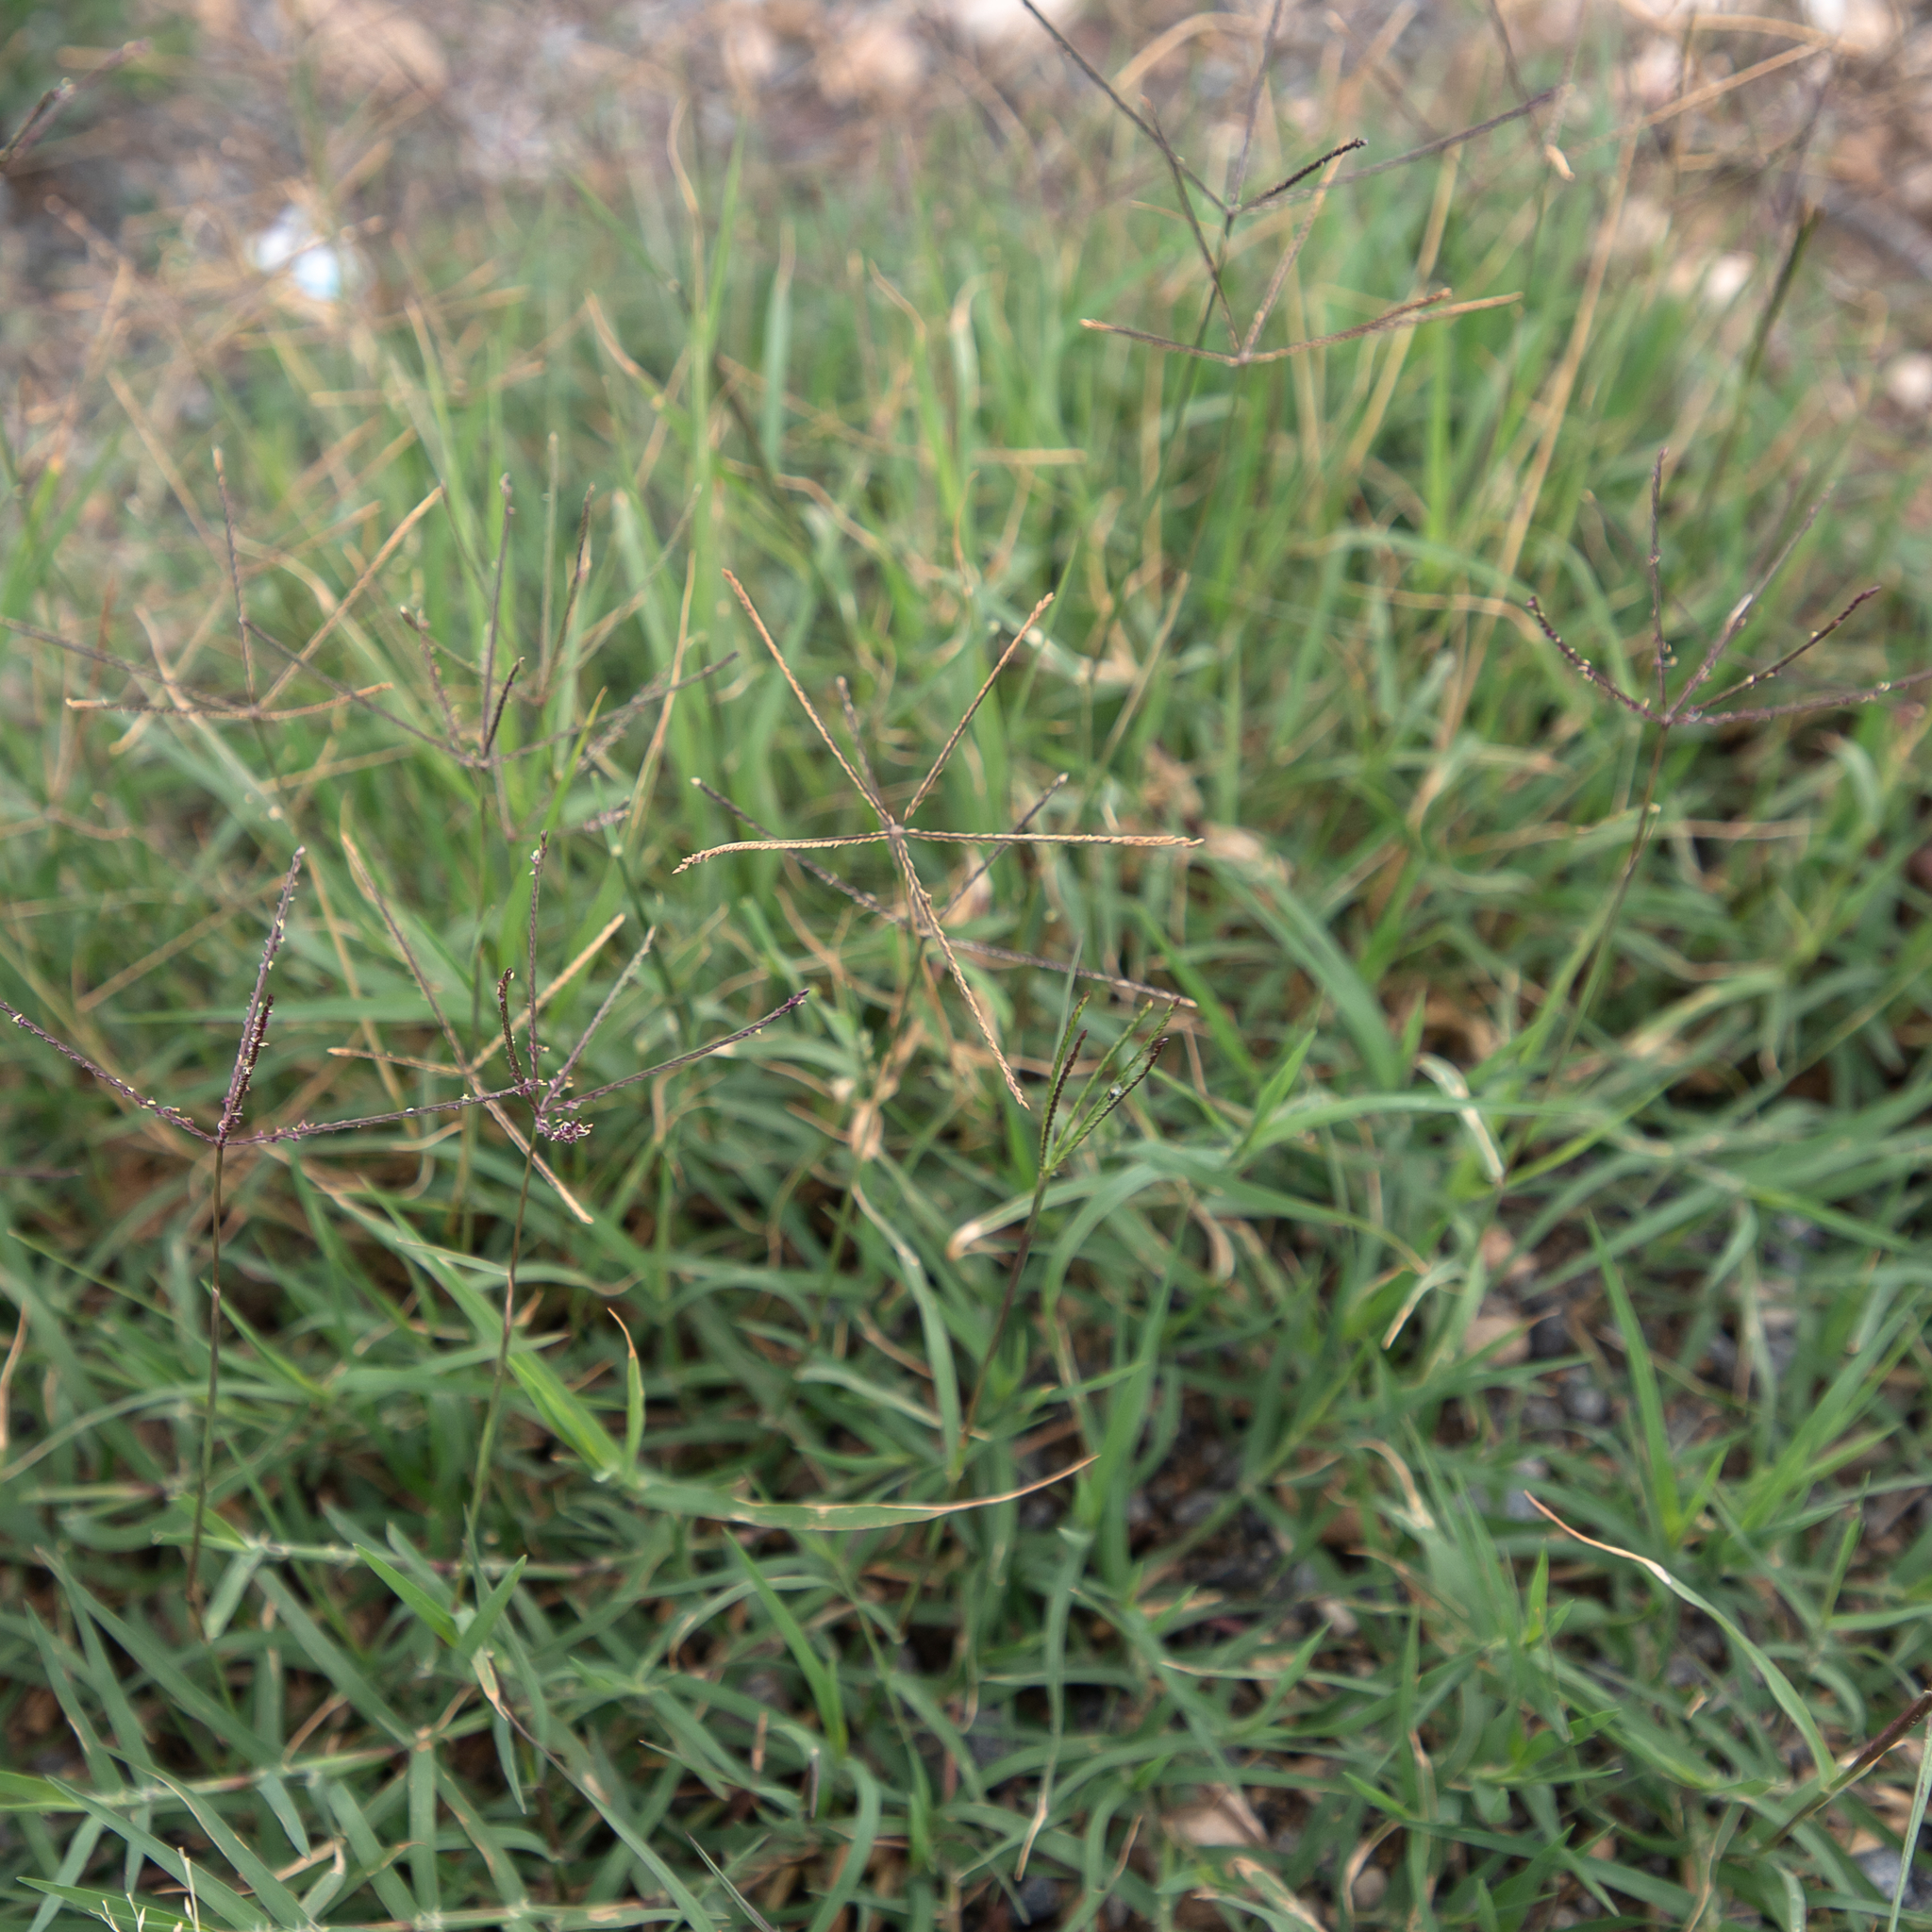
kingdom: Plantae
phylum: Tracheophyta
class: Liliopsida
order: Poales
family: Poaceae
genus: Cynodon
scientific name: Cynodon dactylon
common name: Bermuda grass
